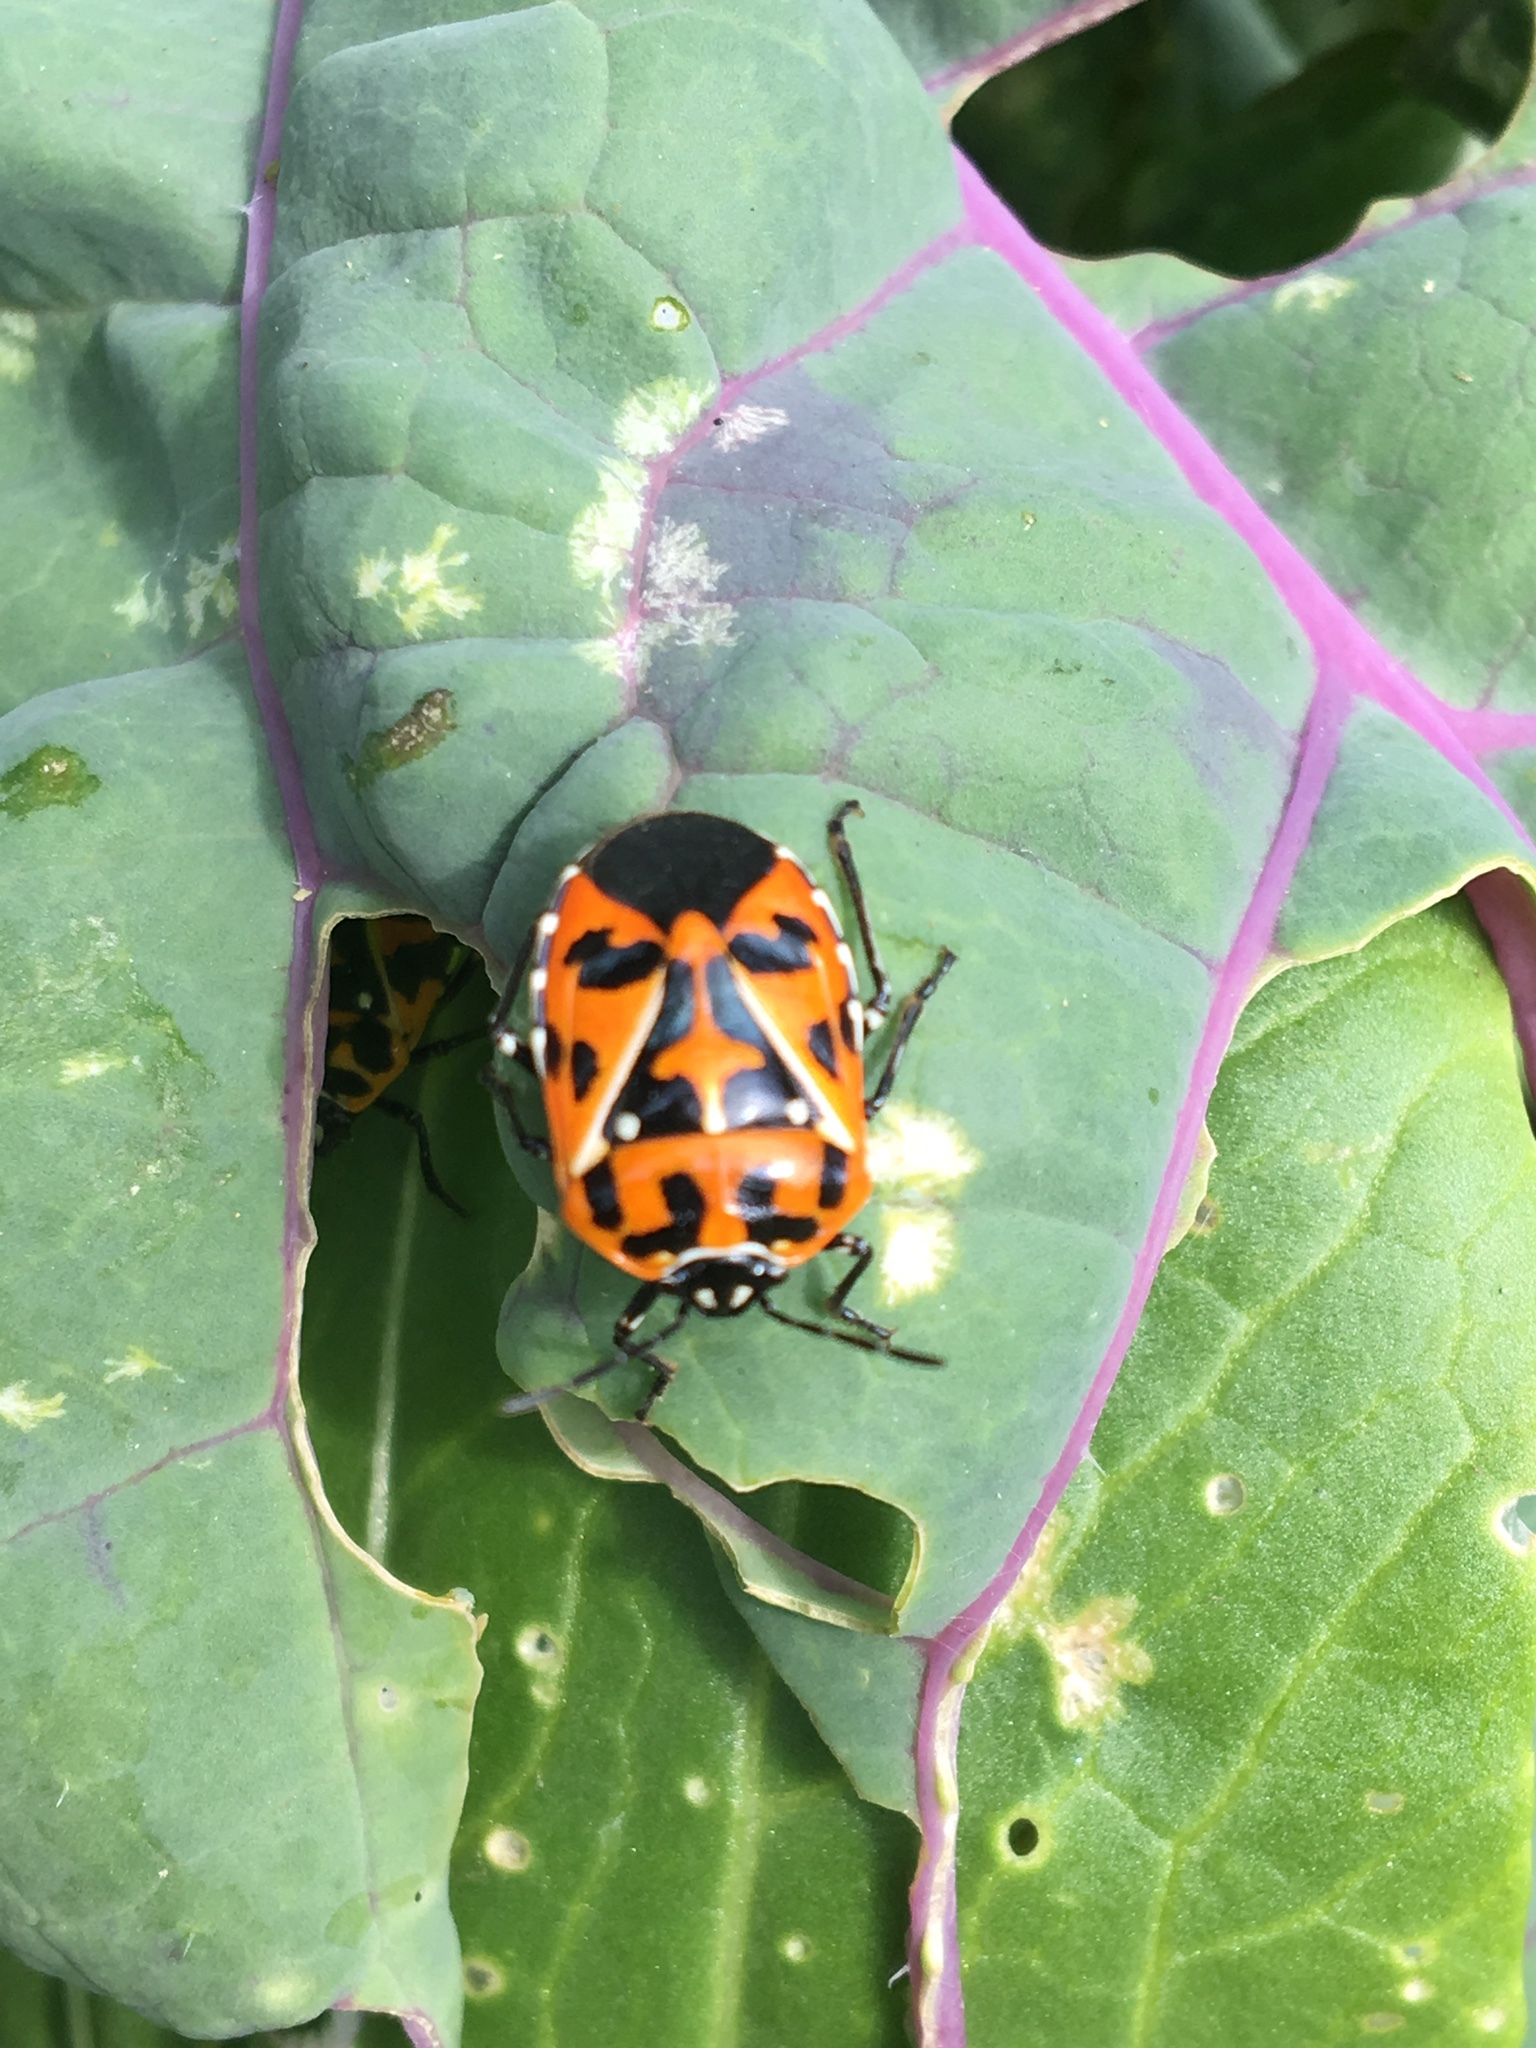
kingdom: Animalia
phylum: Arthropoda
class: Insecta
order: Hemiptera
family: Pentatomidae
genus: Murgantia
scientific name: Murgantia histrionica
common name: Harlequin bug
